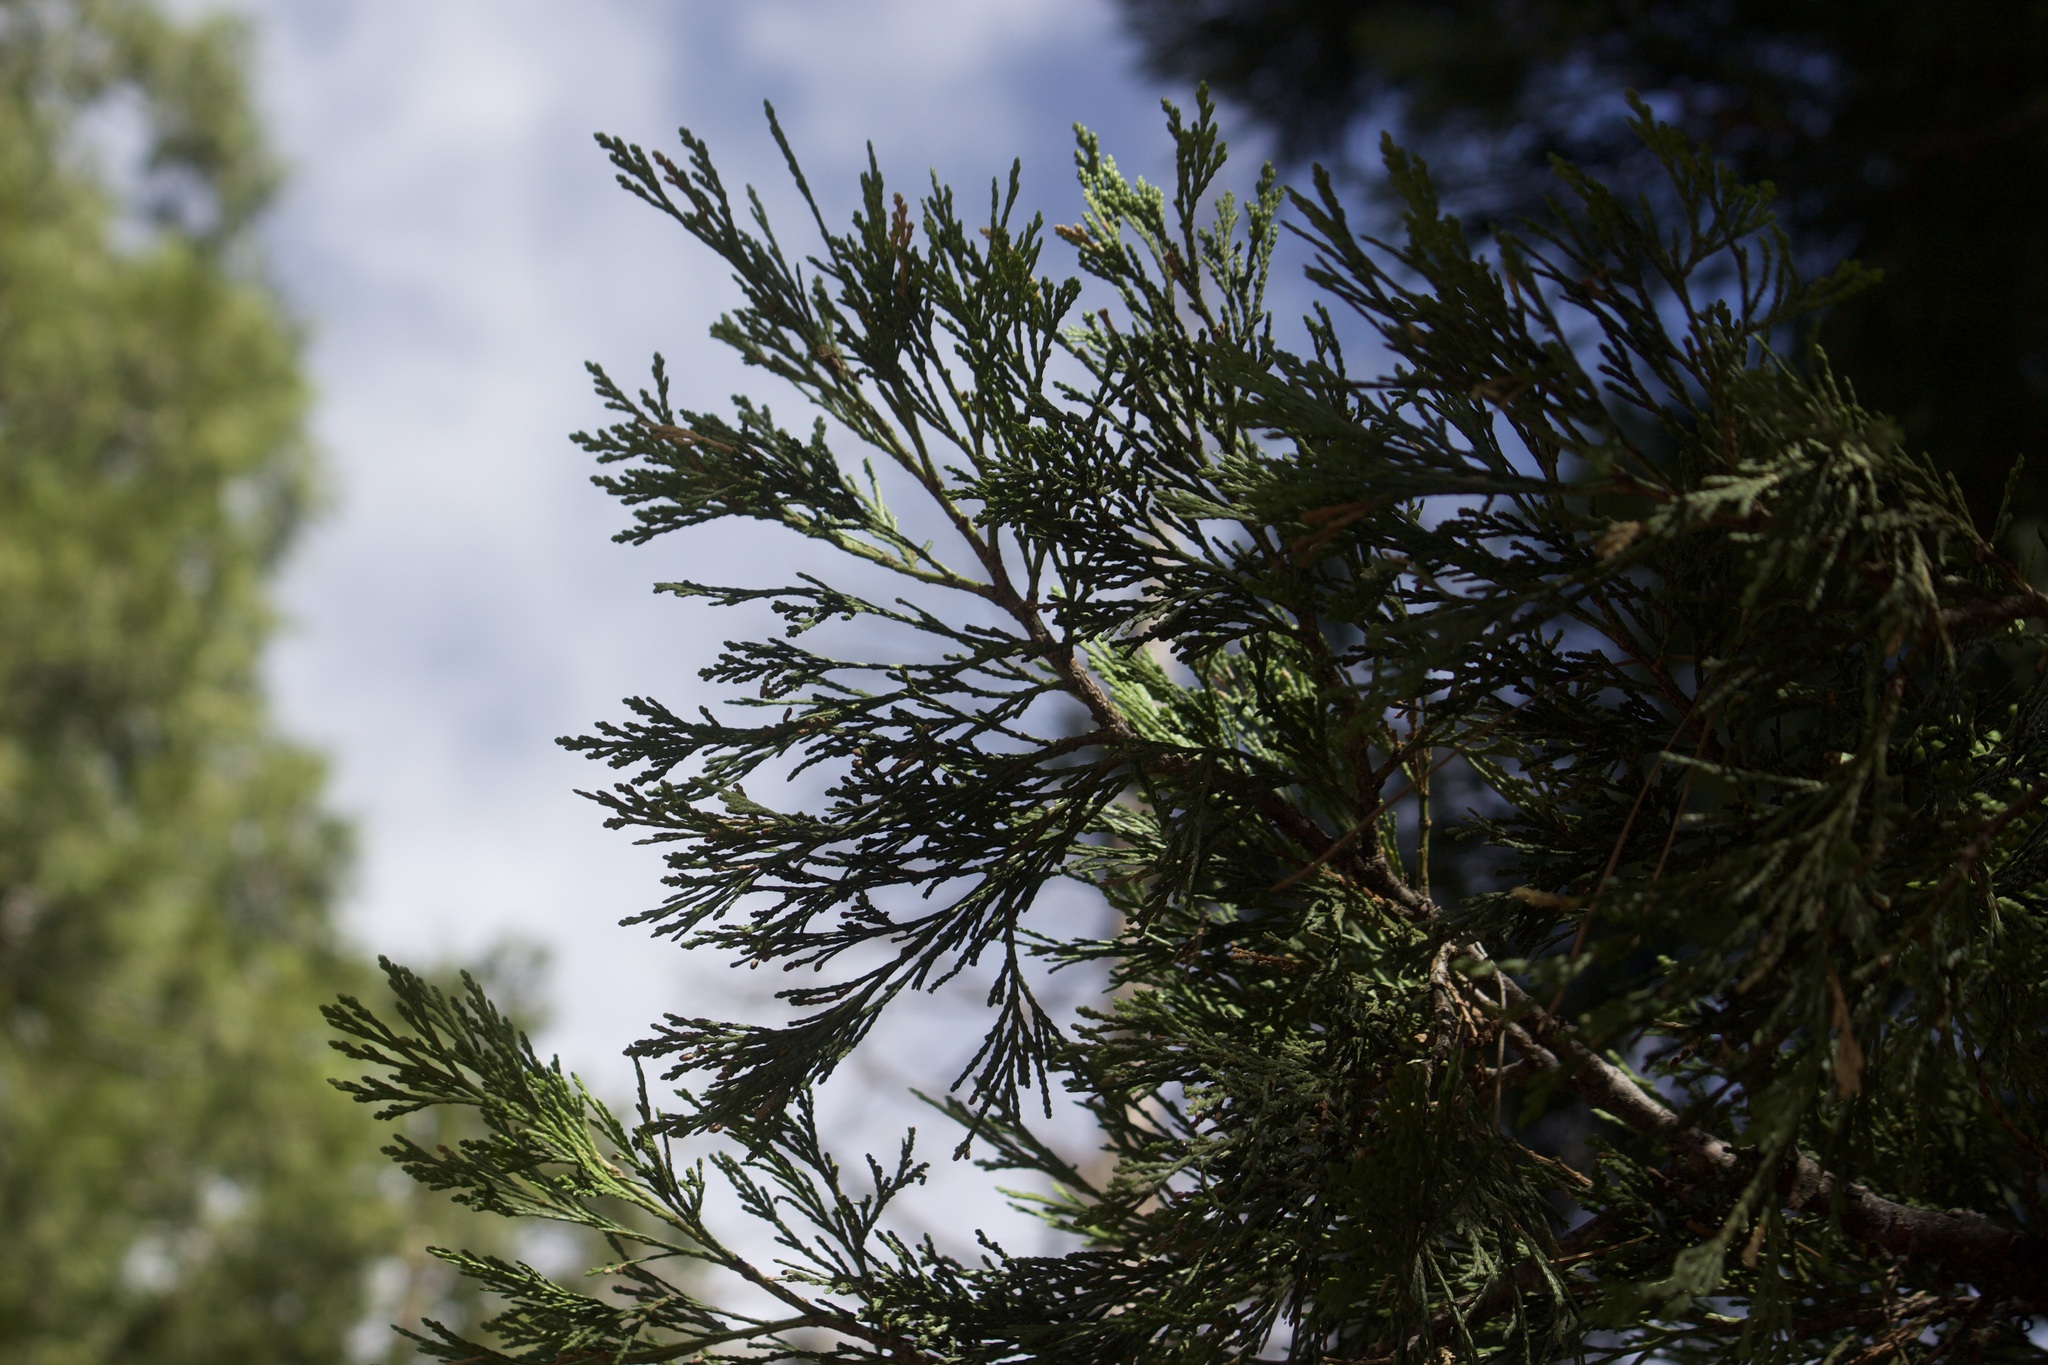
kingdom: Plantae
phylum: Tracheophyta
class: Pinopsida
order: Pinales
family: Cupressaceae
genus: Calocedrus
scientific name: Calocedrus decurrens
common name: Californian incense-cedar
